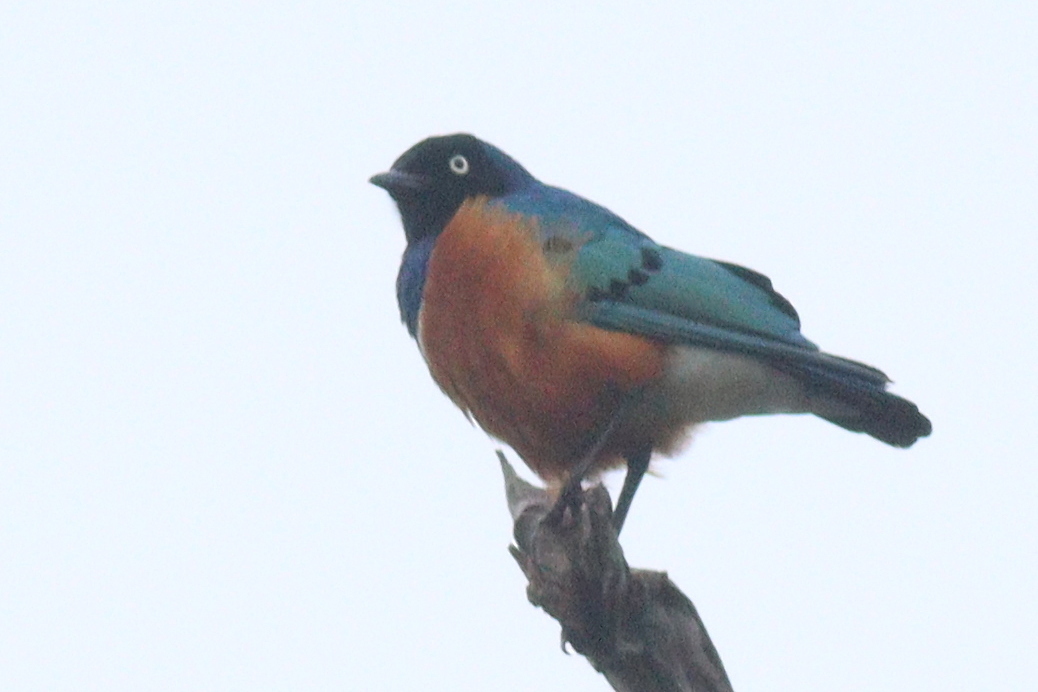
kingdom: Animalia
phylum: Chordata
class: Aves
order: Passeriformes
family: Sturnidae
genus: Lamprotornis
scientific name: Lamprotornis superbus
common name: Superb starling
